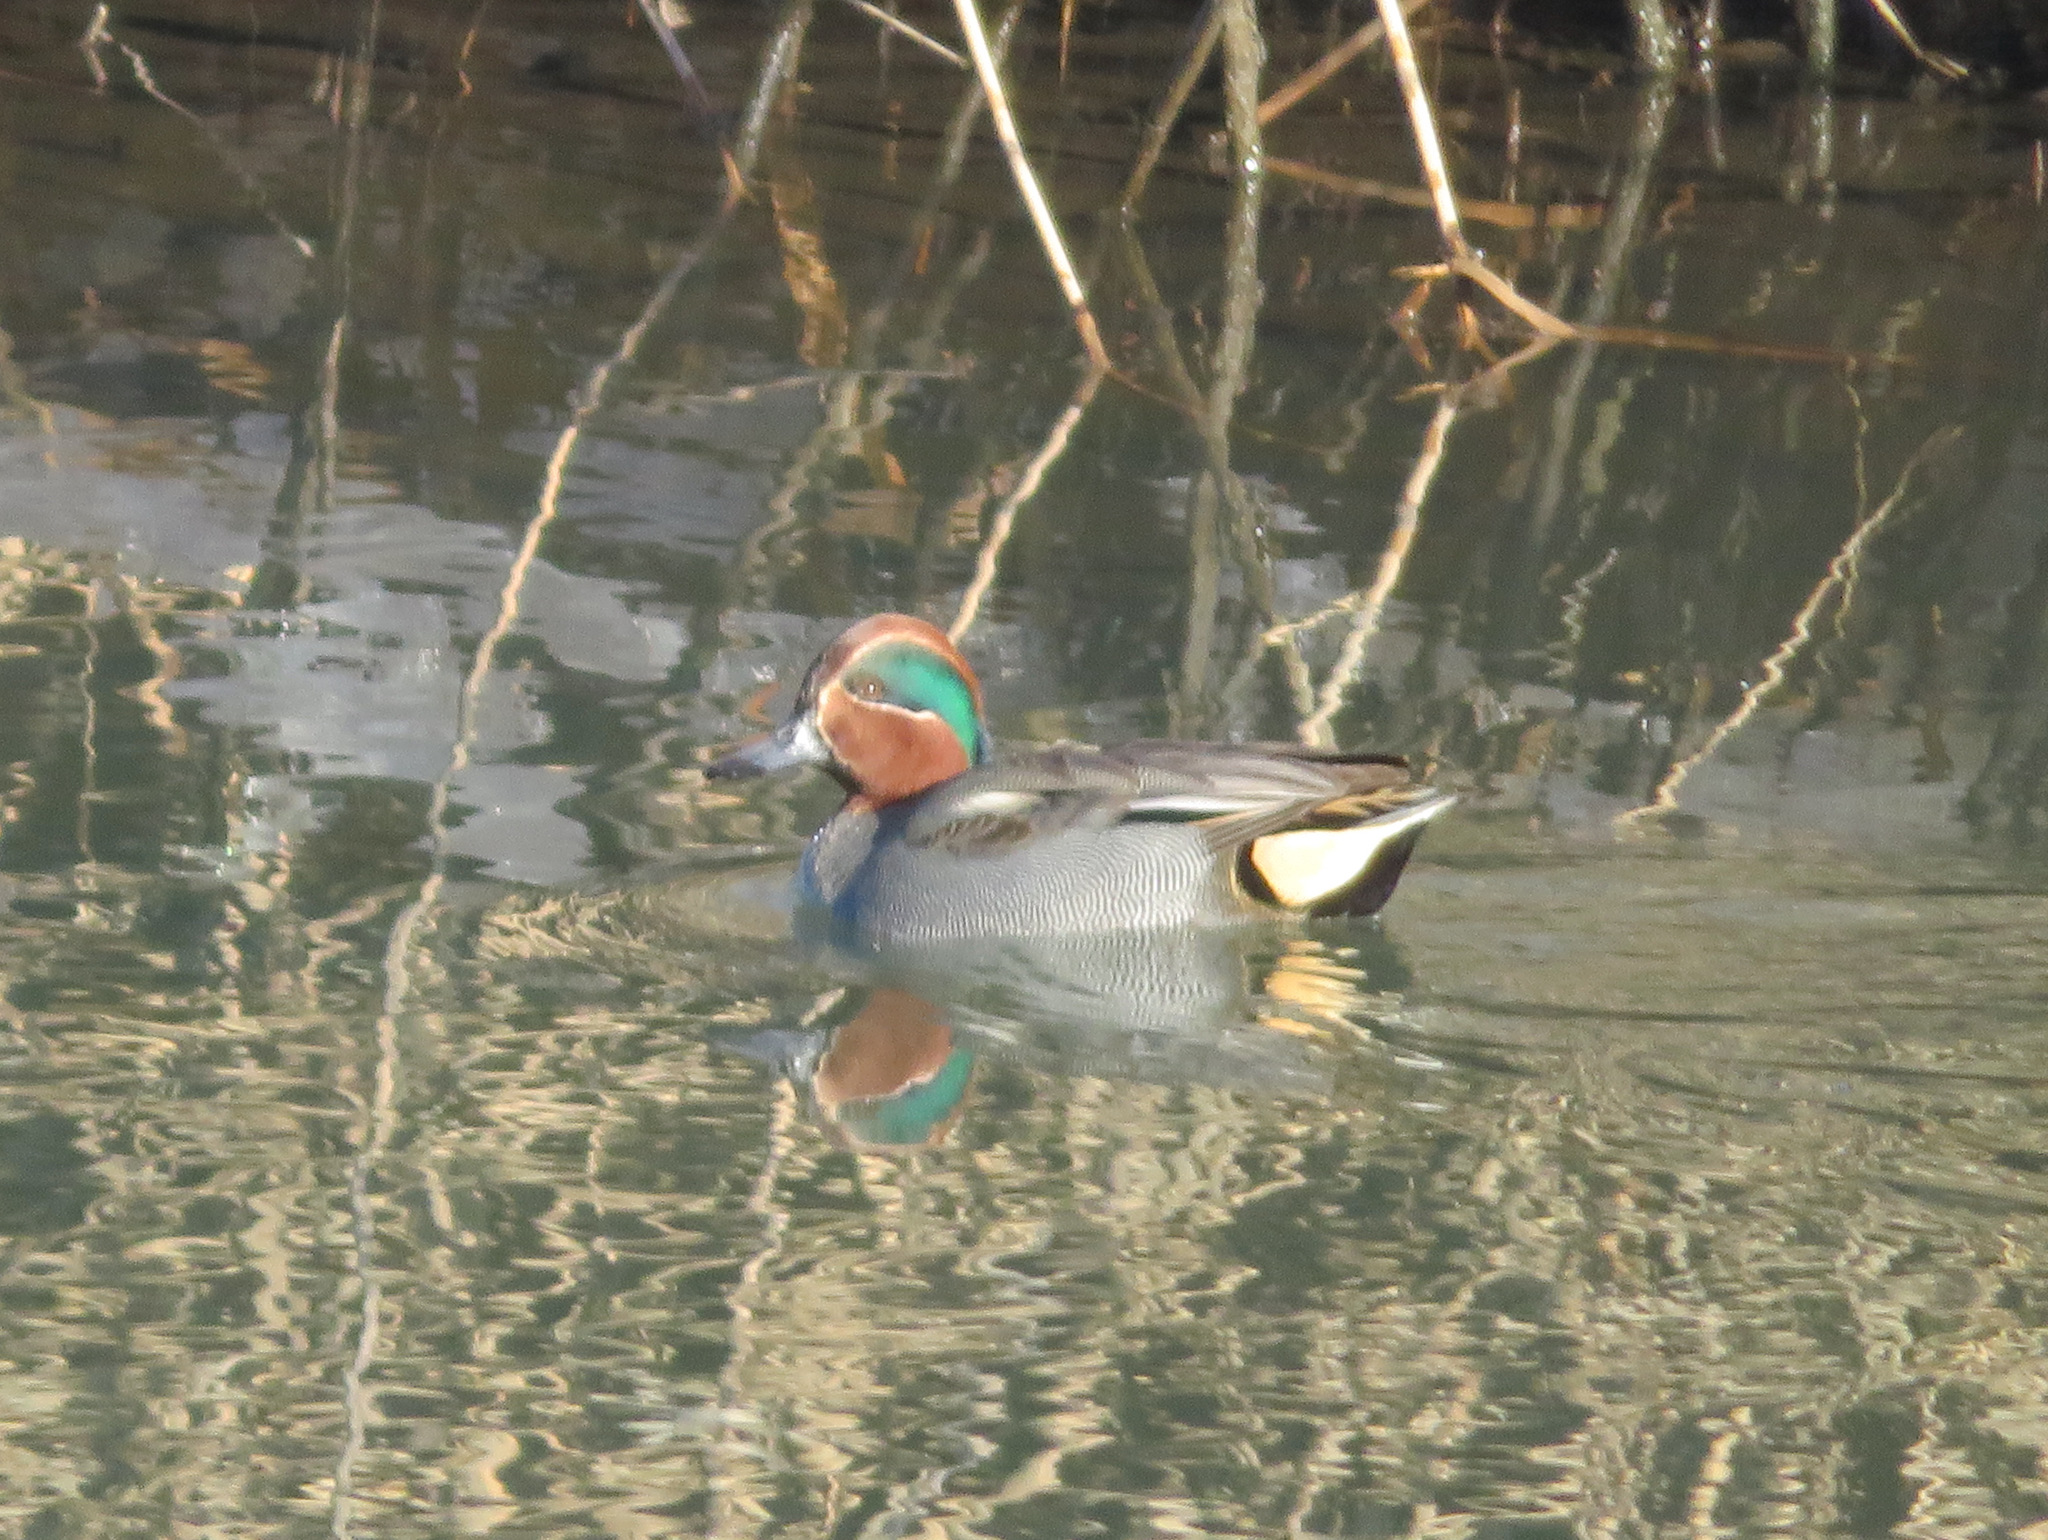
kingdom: Animalia
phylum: Chordata
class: Aves
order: Anseriformes
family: Anatidae
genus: Anas
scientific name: Anas crecca
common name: Eurasian teal
